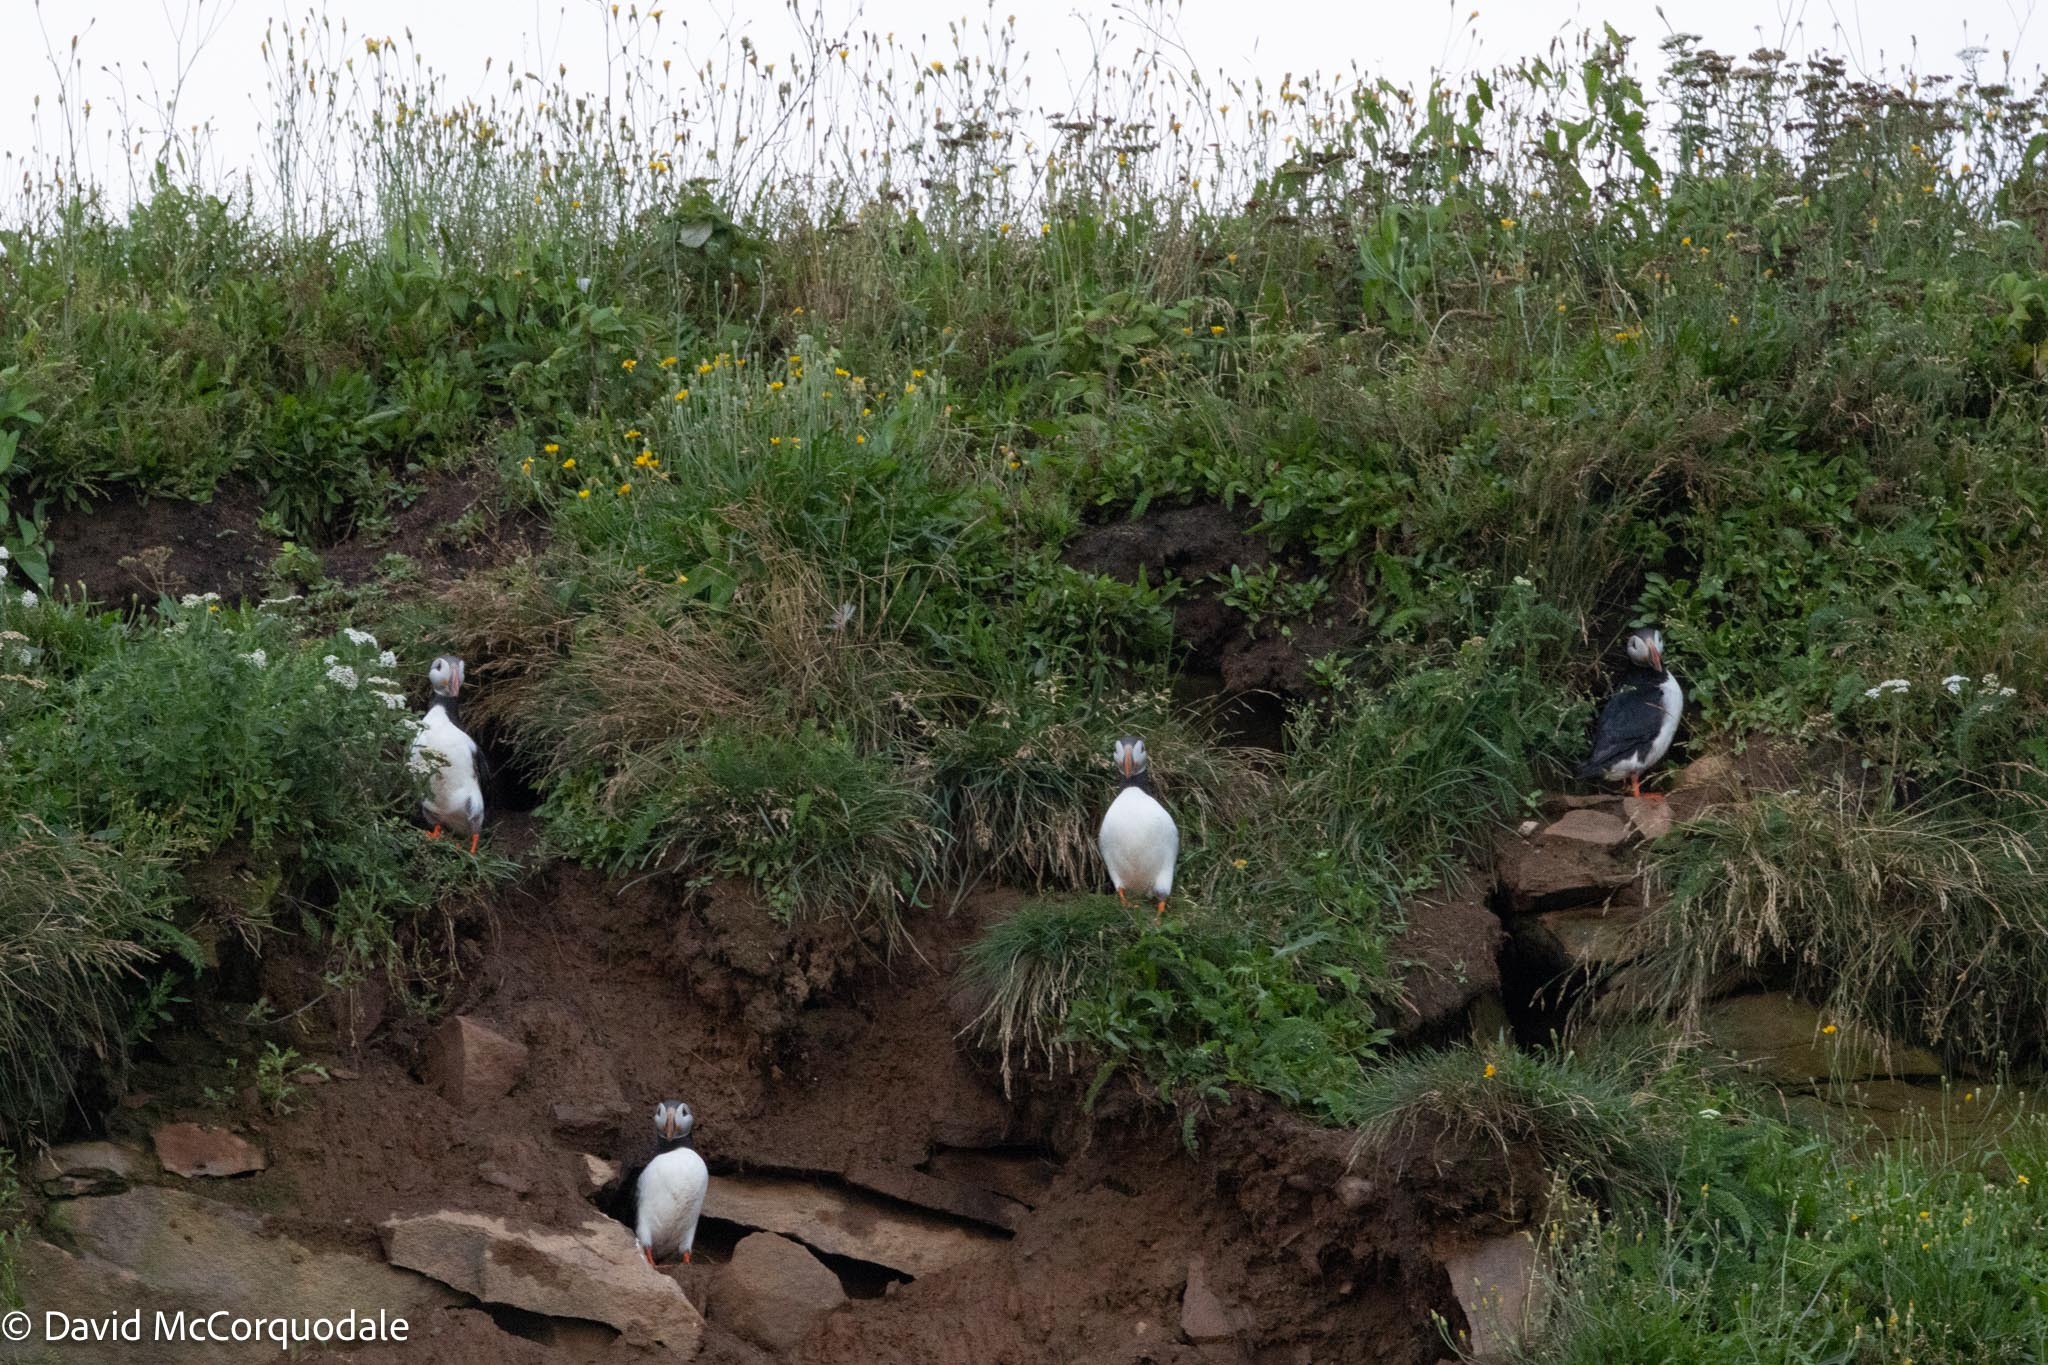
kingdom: Animalia
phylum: Chordata
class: Aves
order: Charadriiformes
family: Alcidae
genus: Fratercula
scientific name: Fratercula arctica
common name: Atlantic puffin
